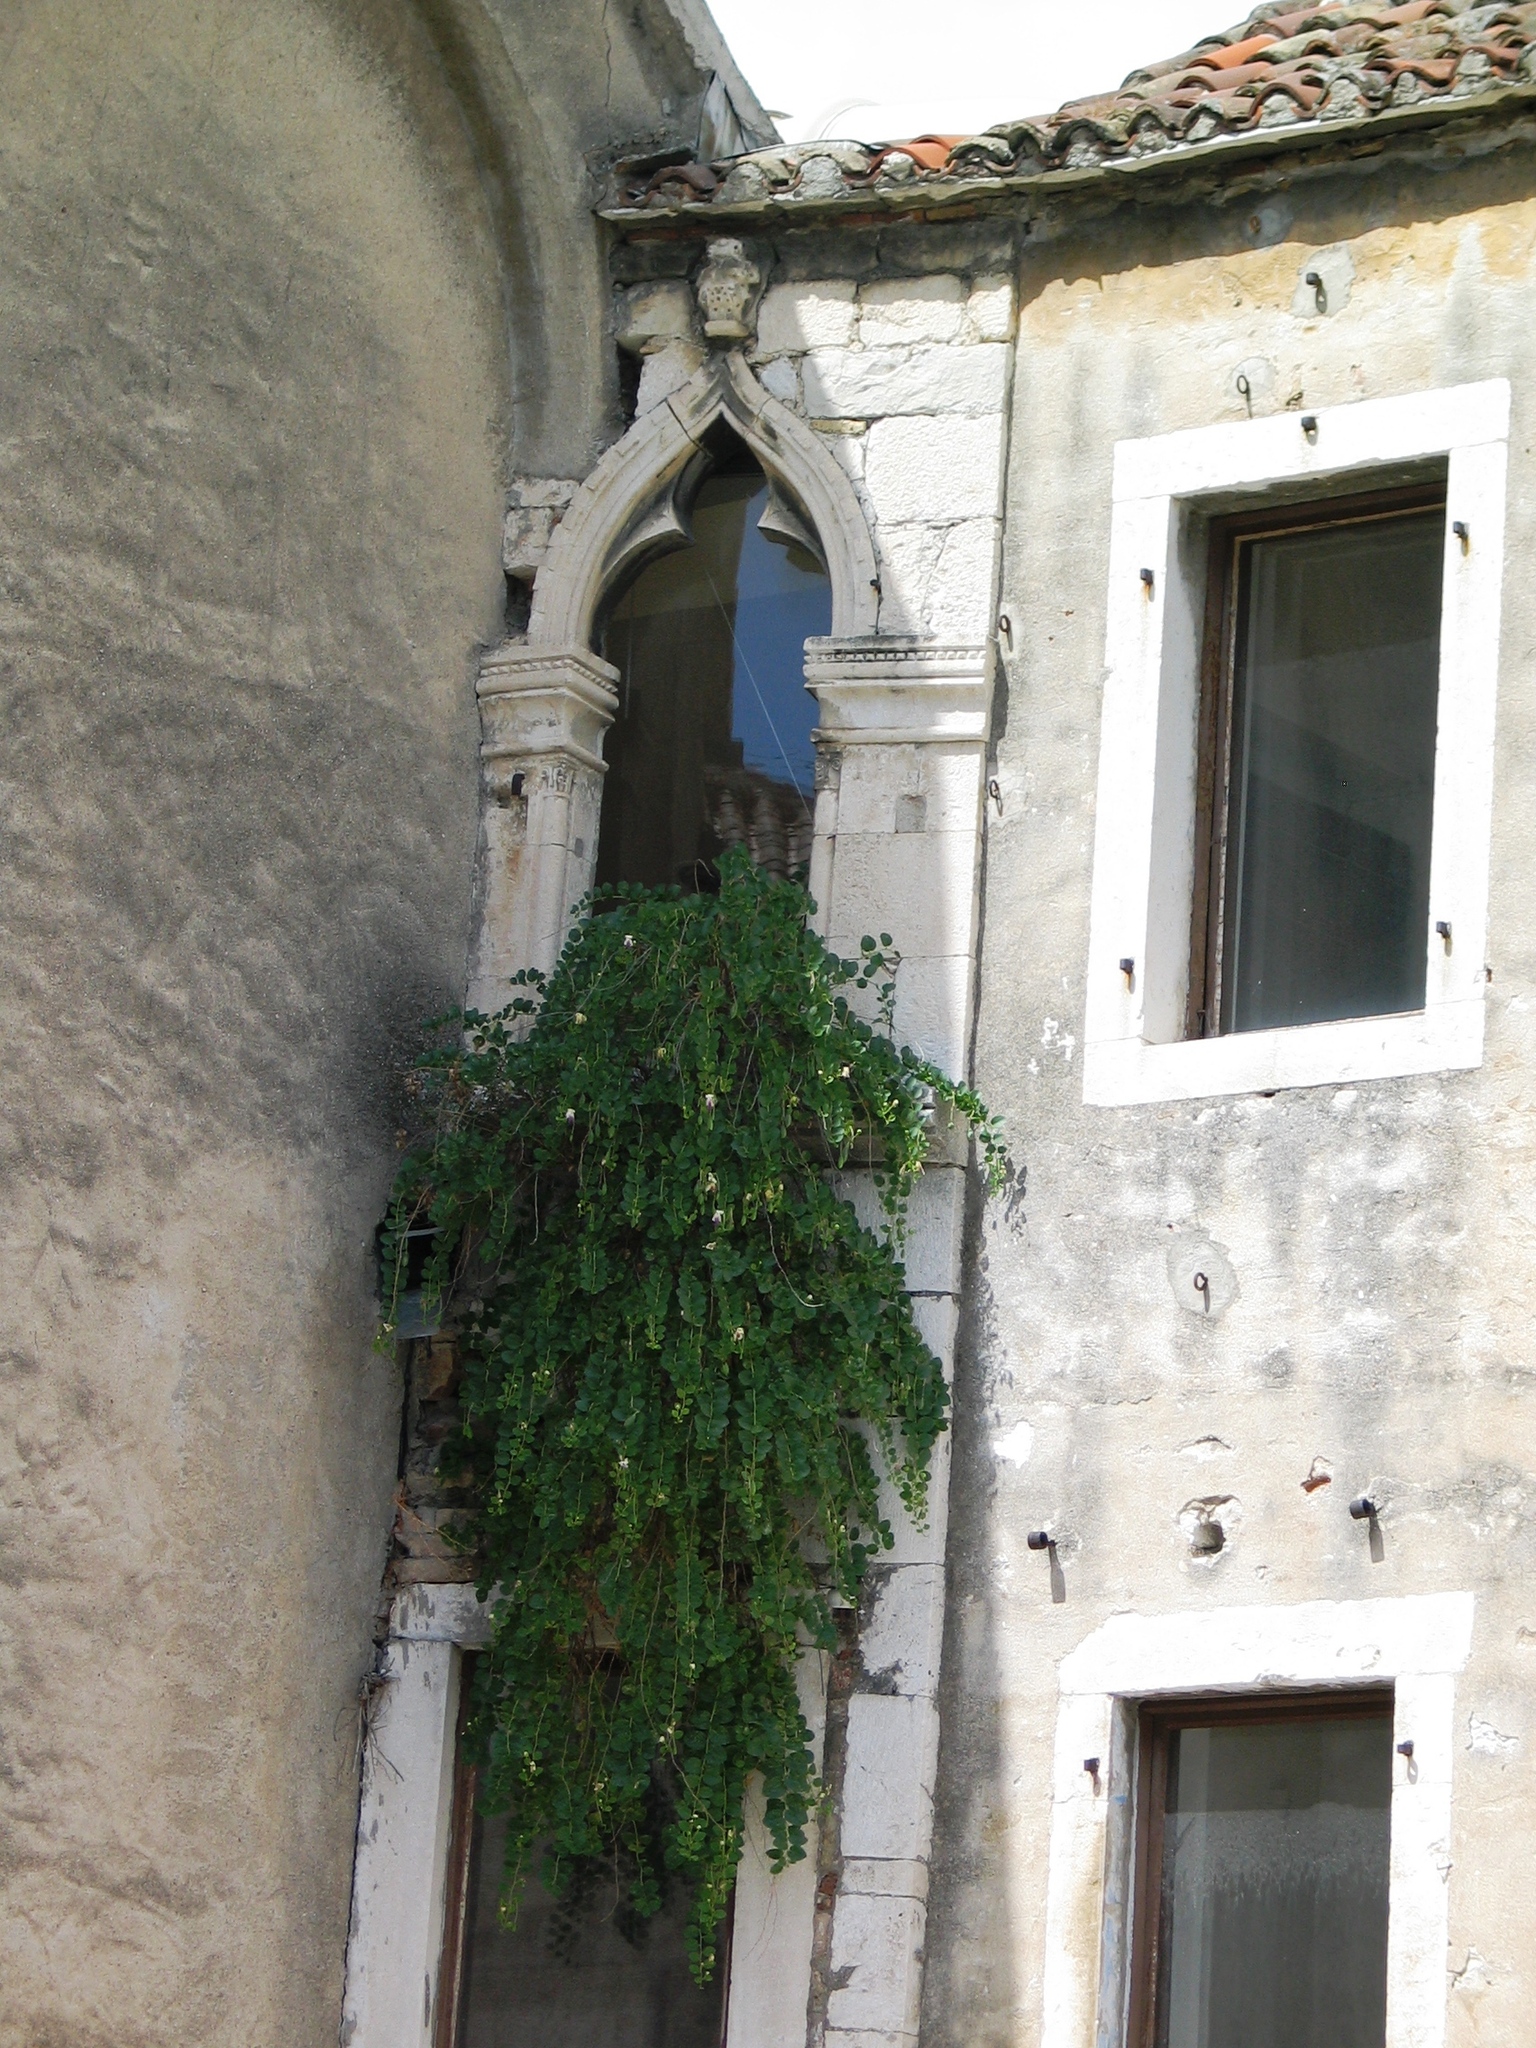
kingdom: Plantae
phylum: Tracheophyta
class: Magnoliopsida
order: Brassicales
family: Capparaceae
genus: Capparis
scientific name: Capparis orientalis
